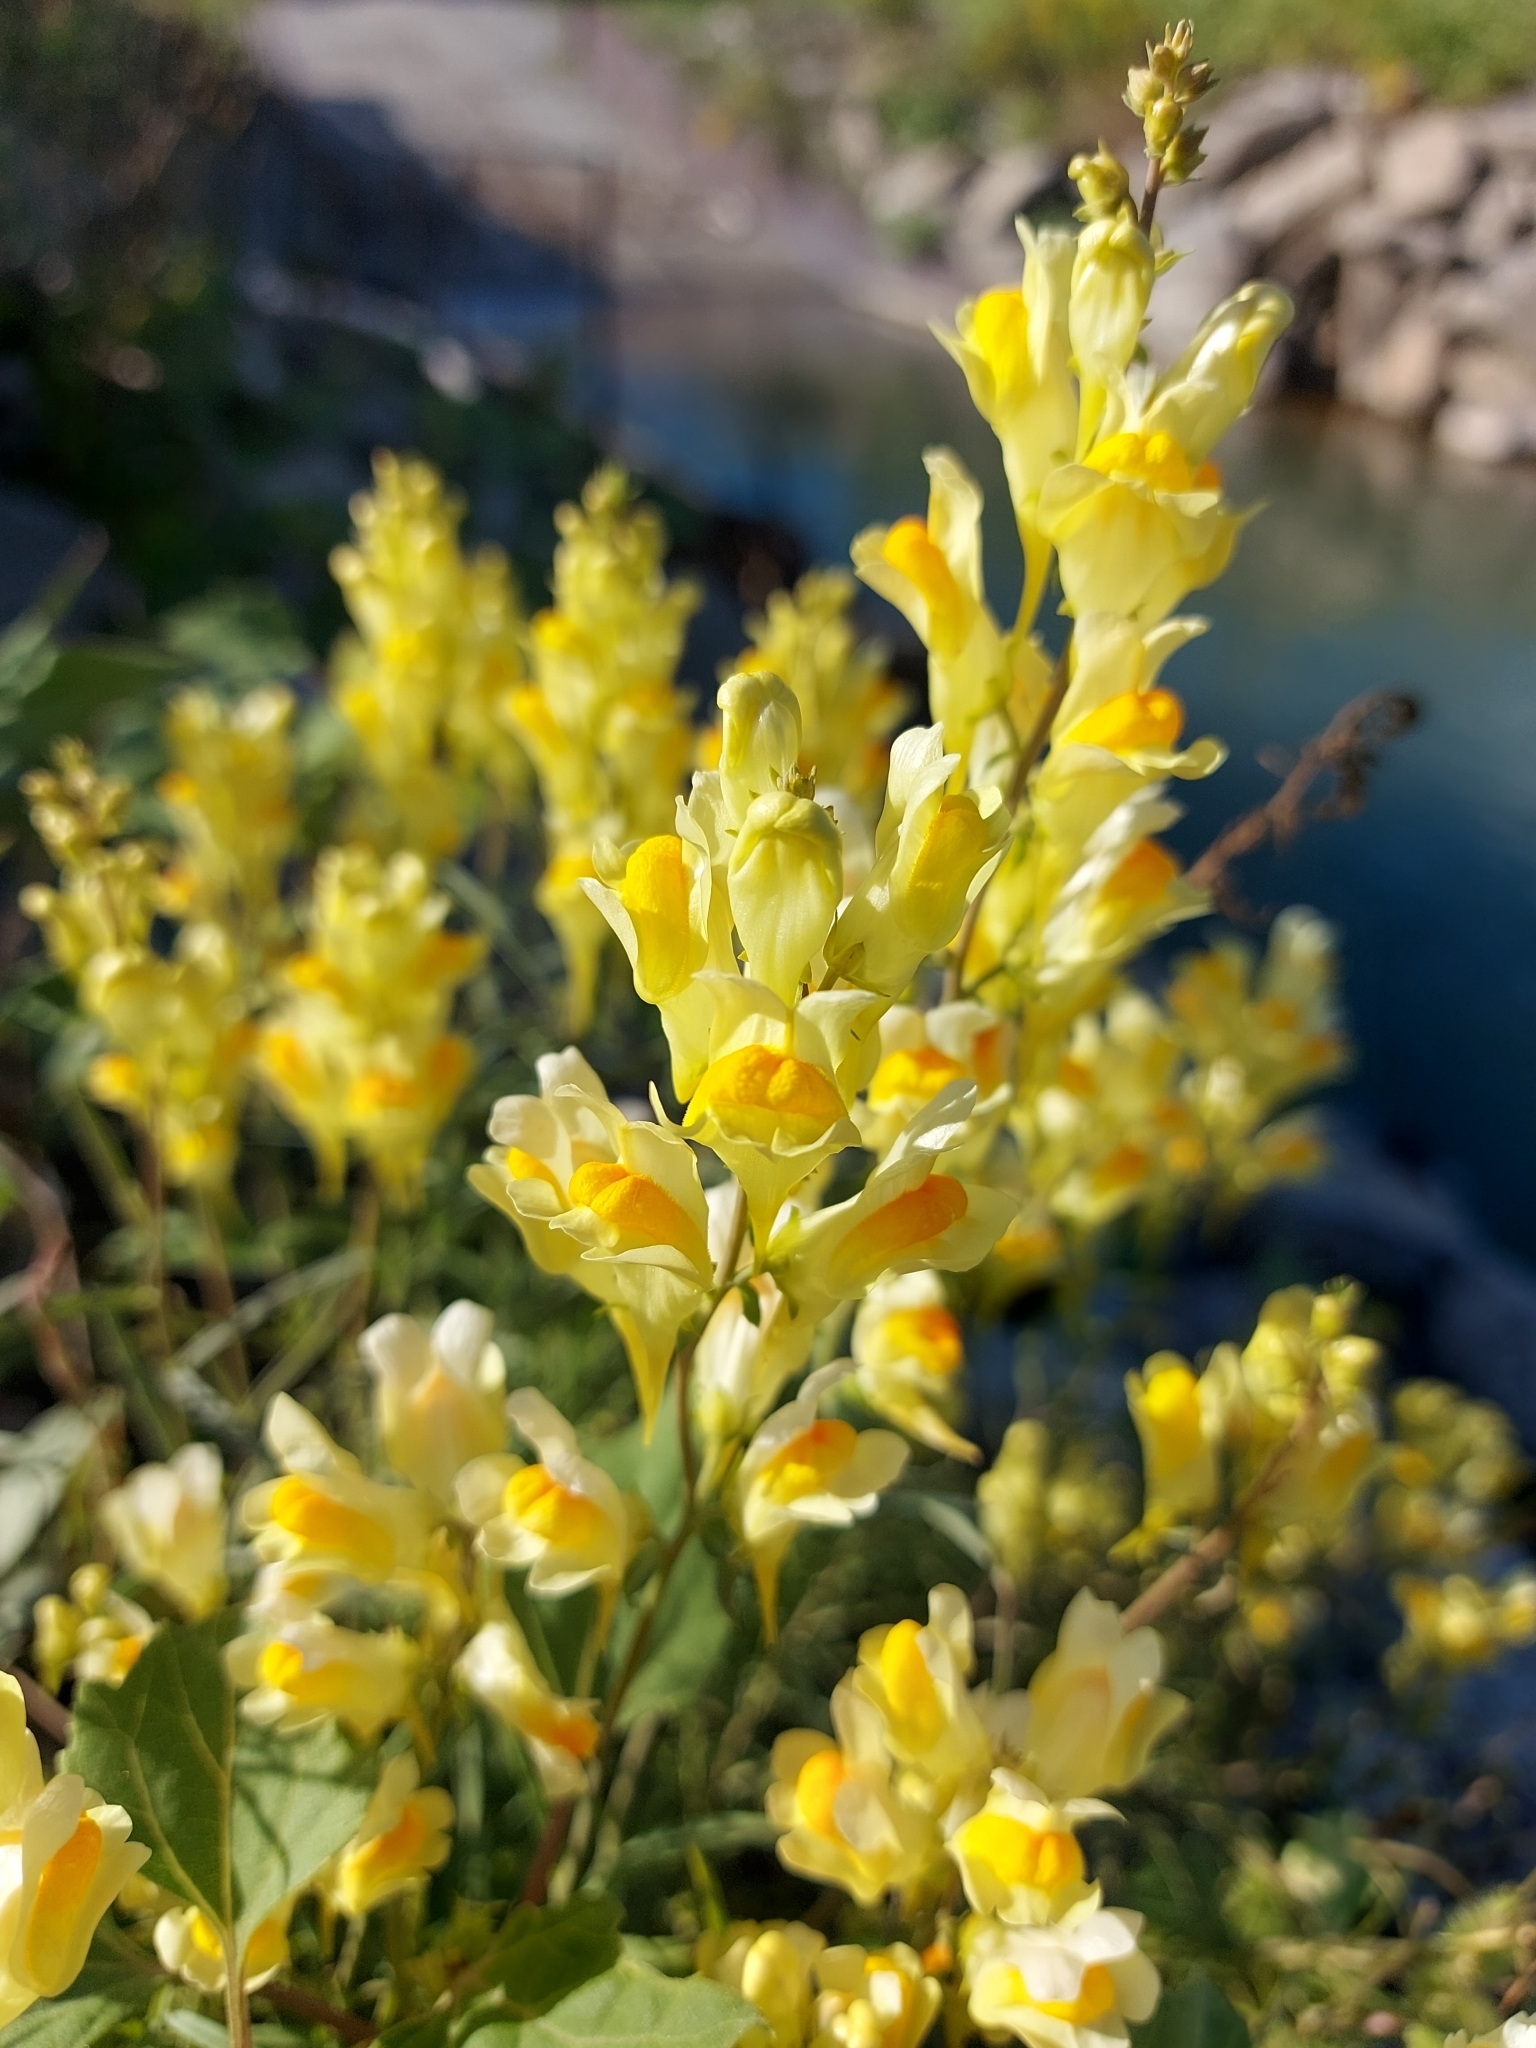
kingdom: Plantae
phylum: Tracheophyta
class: Magnoliopsida
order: Lamiales
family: Plantaginaceae
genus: Linaria
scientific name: Linaria vulgaris
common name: Butter and eggs
